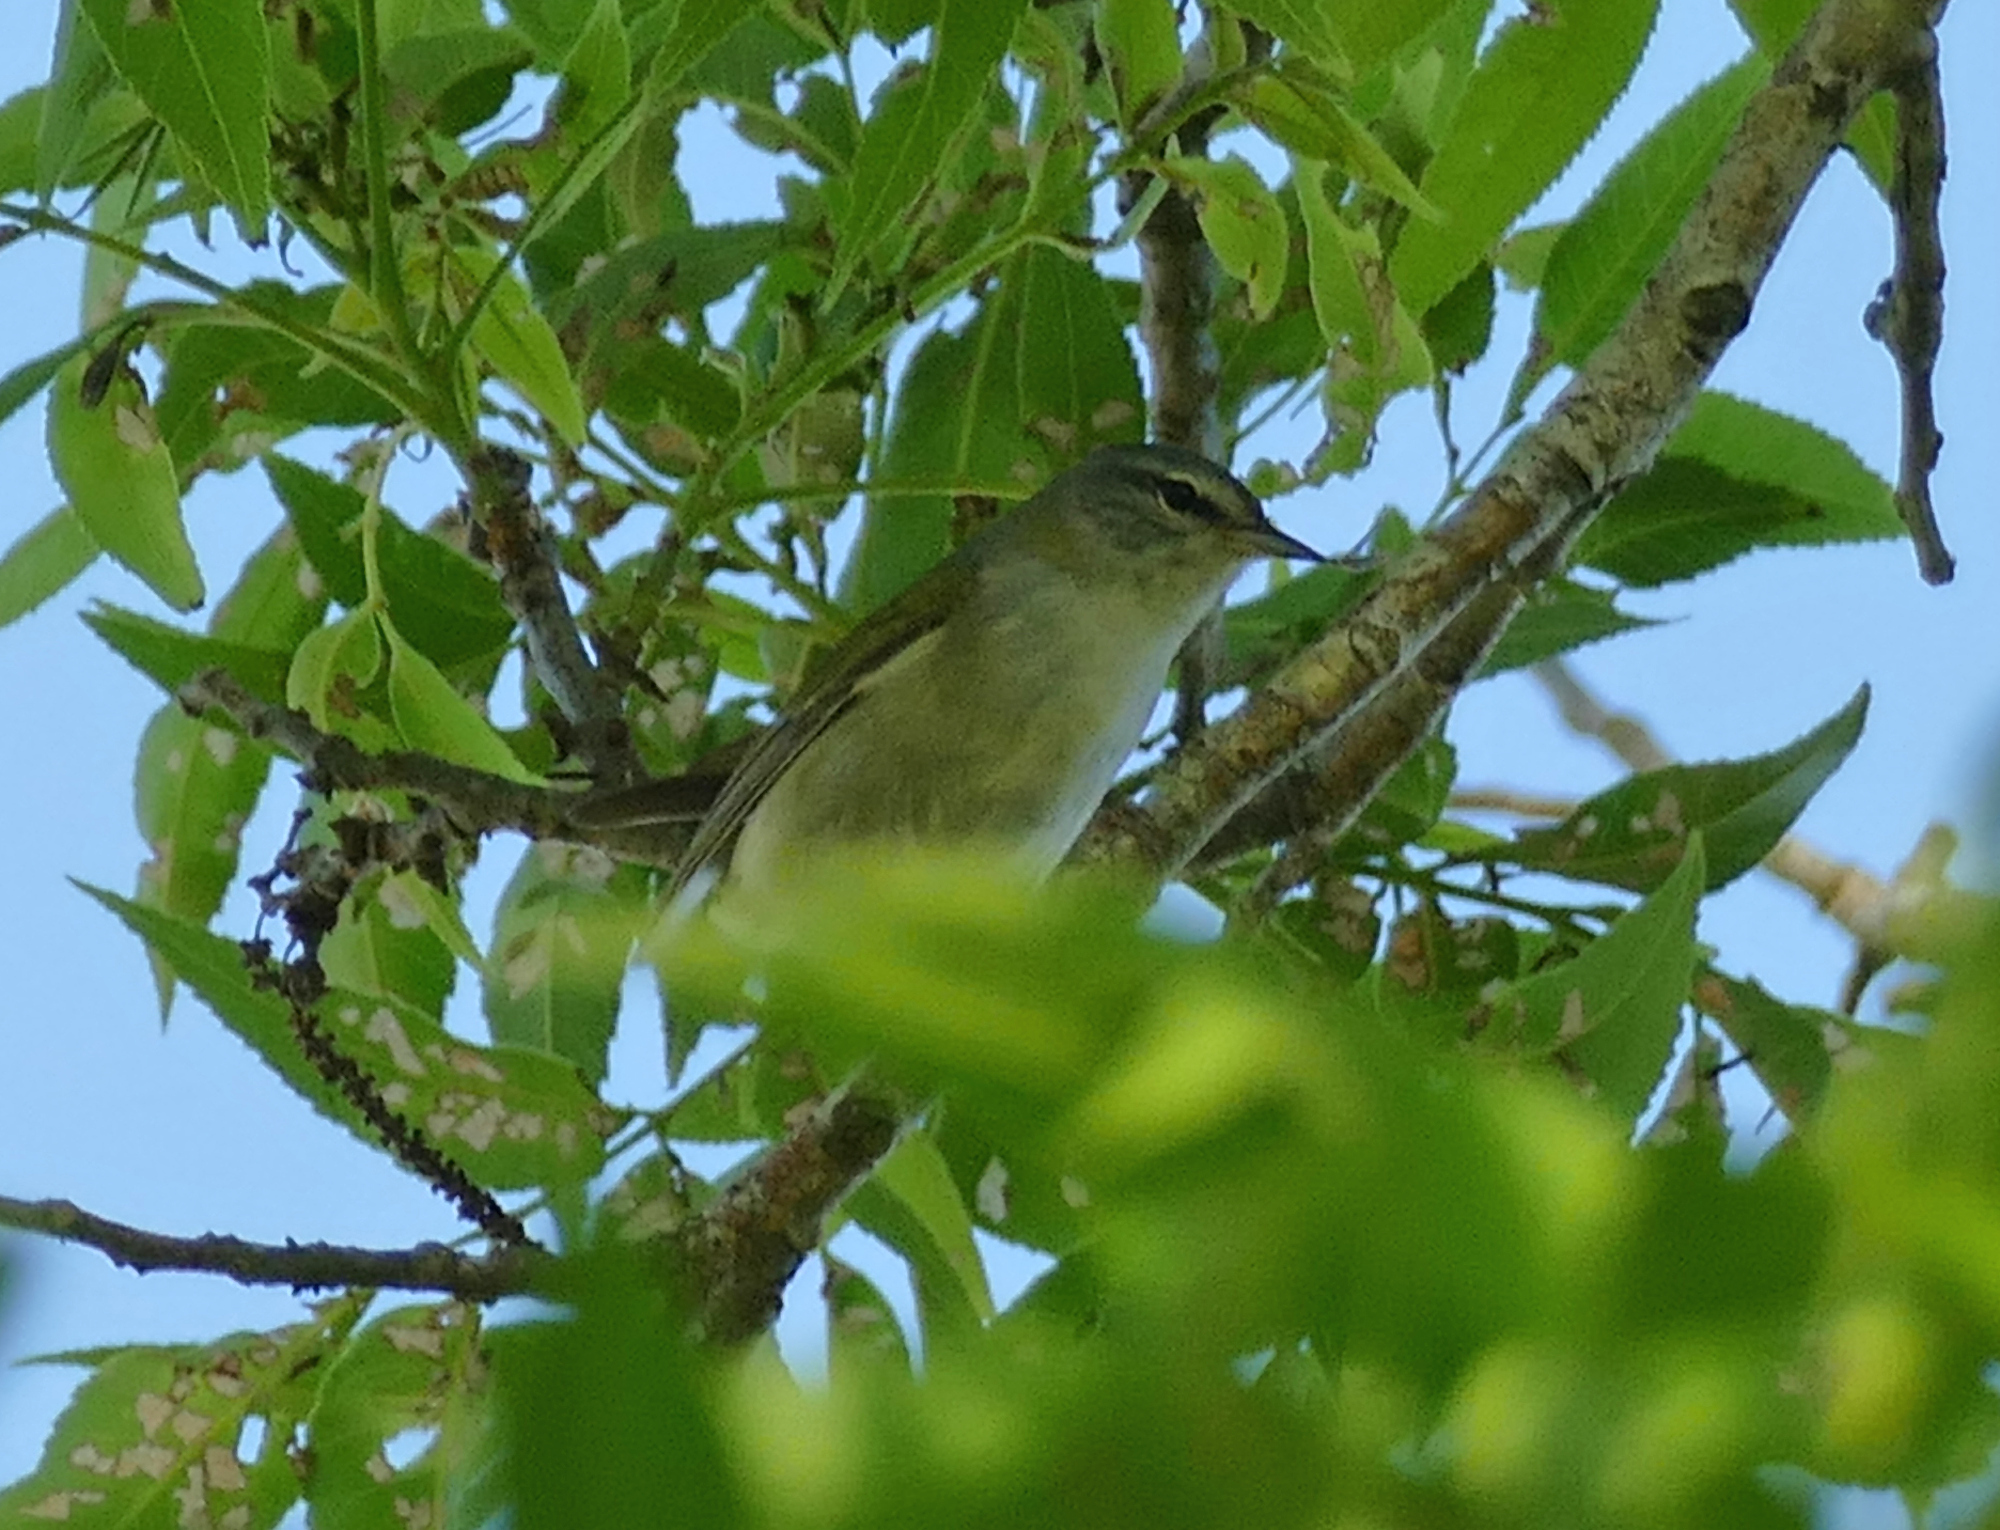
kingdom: Animalia
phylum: Chordata
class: Aves
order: Passeriformes
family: Parulidae
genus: Leiothlypis
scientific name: Leiothlypis peregrina
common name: Tennessee warbler
